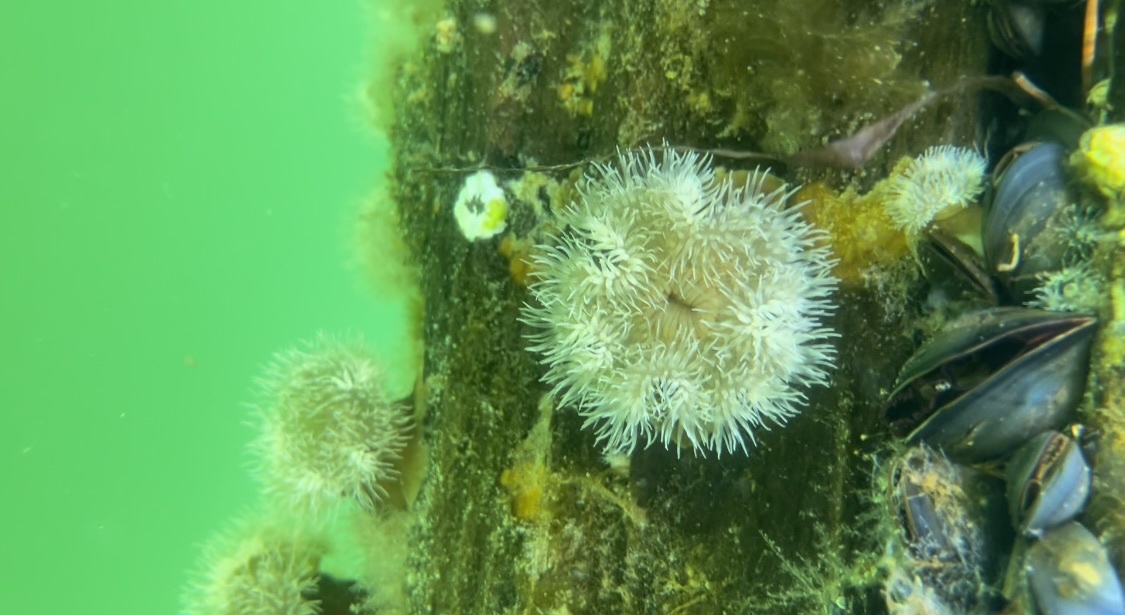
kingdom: Animalia
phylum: Cnidaria
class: Anthozoa
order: Actiniaria
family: Metridiidae
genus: Metridium
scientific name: Metridium senile
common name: Clonal plumose anemone
